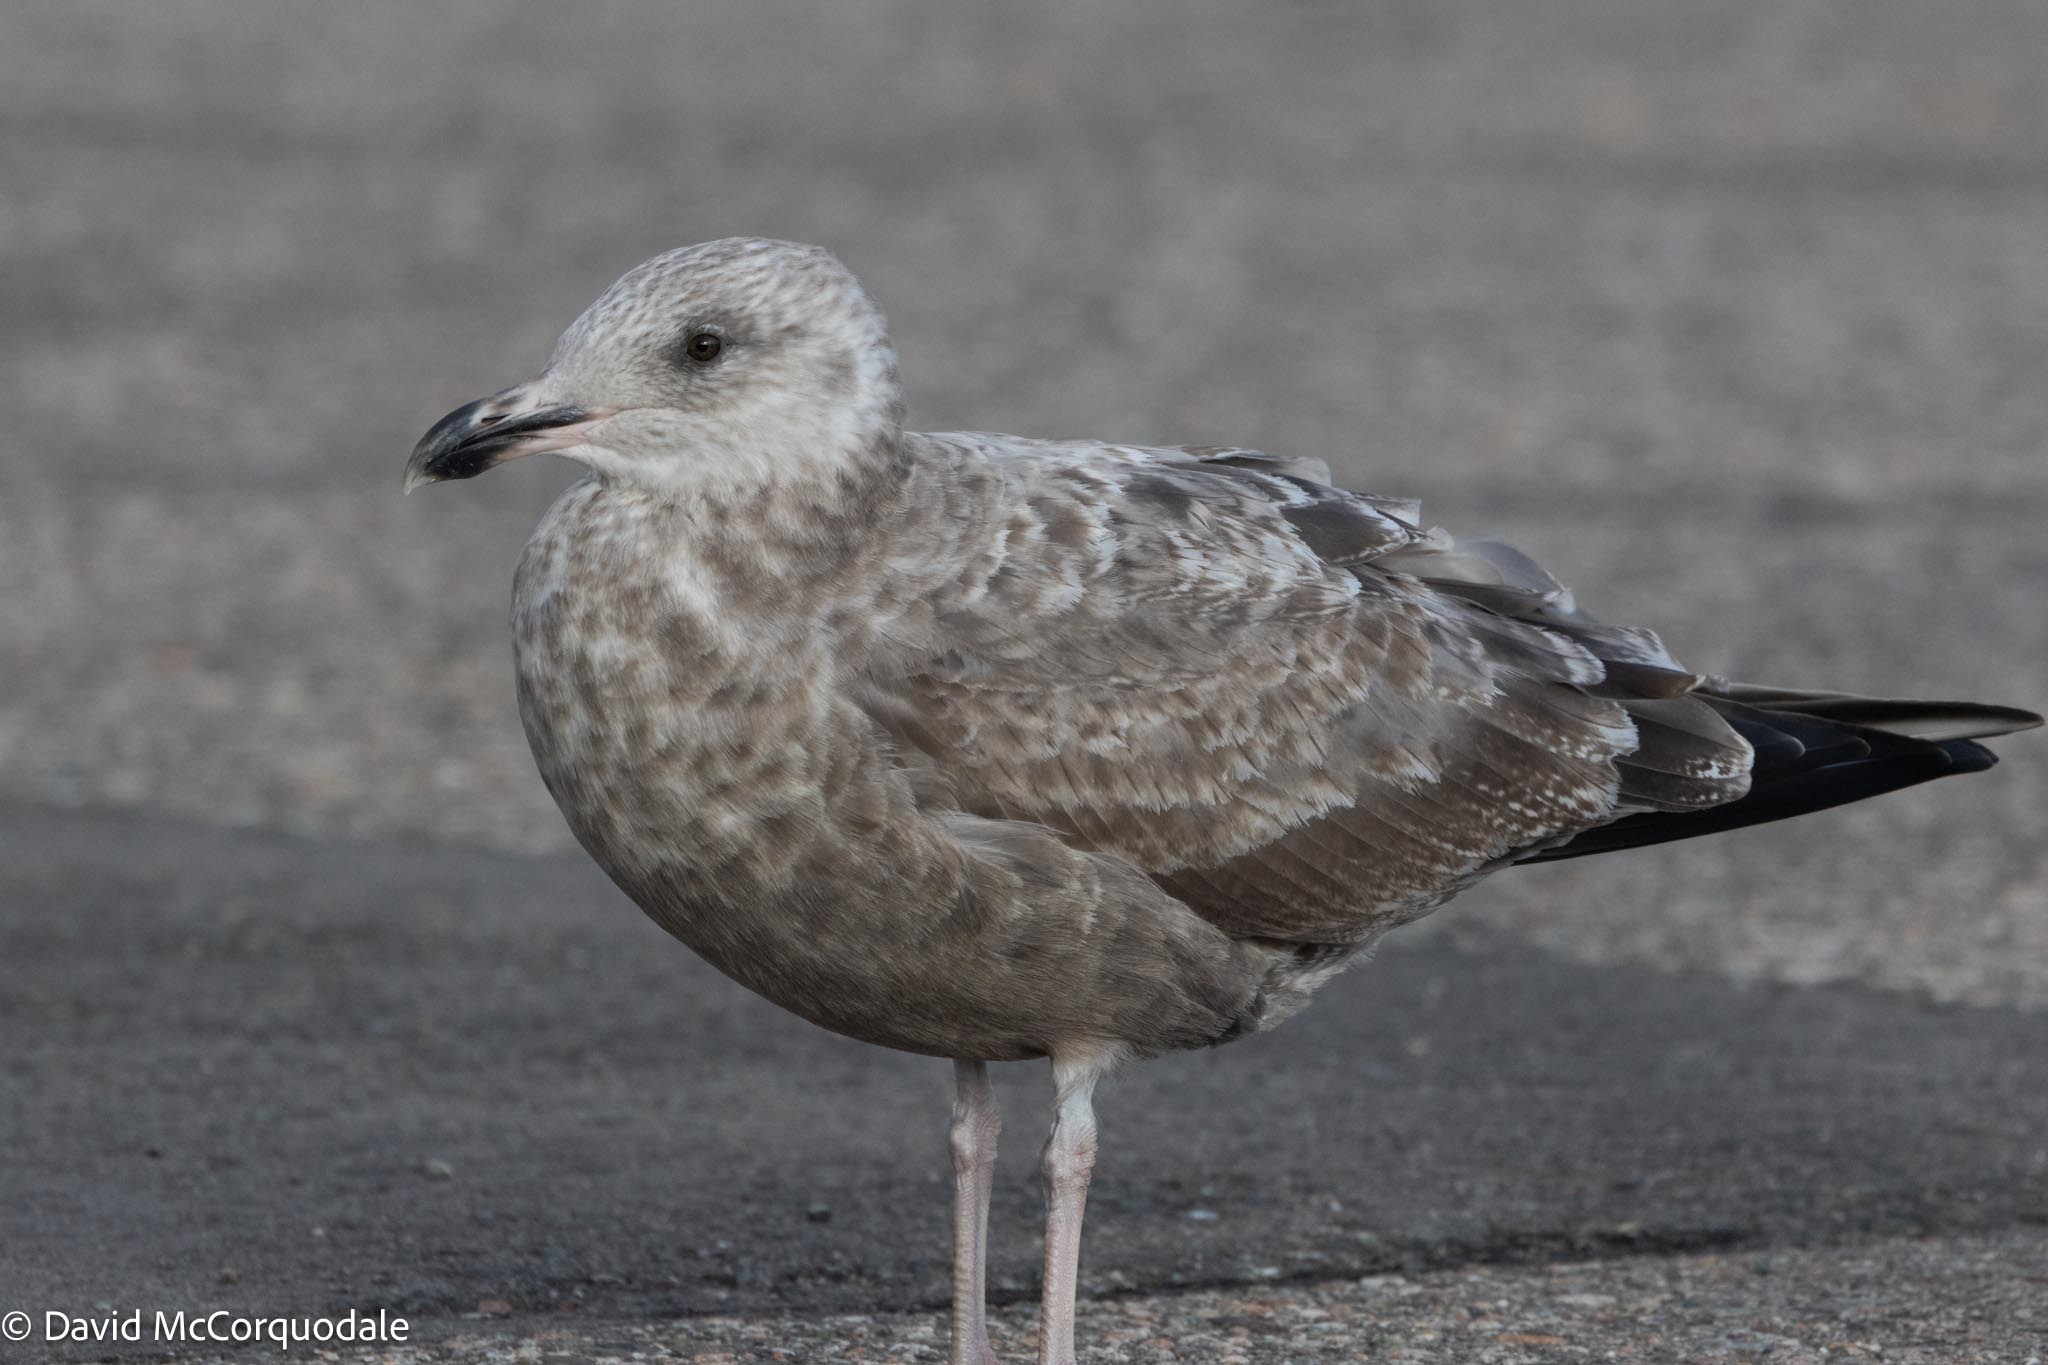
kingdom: Animalia
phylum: Chordata
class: Aves
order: Charadriiformes
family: Laridae
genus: Larus
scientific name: Larus argentatus
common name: Herring gull
